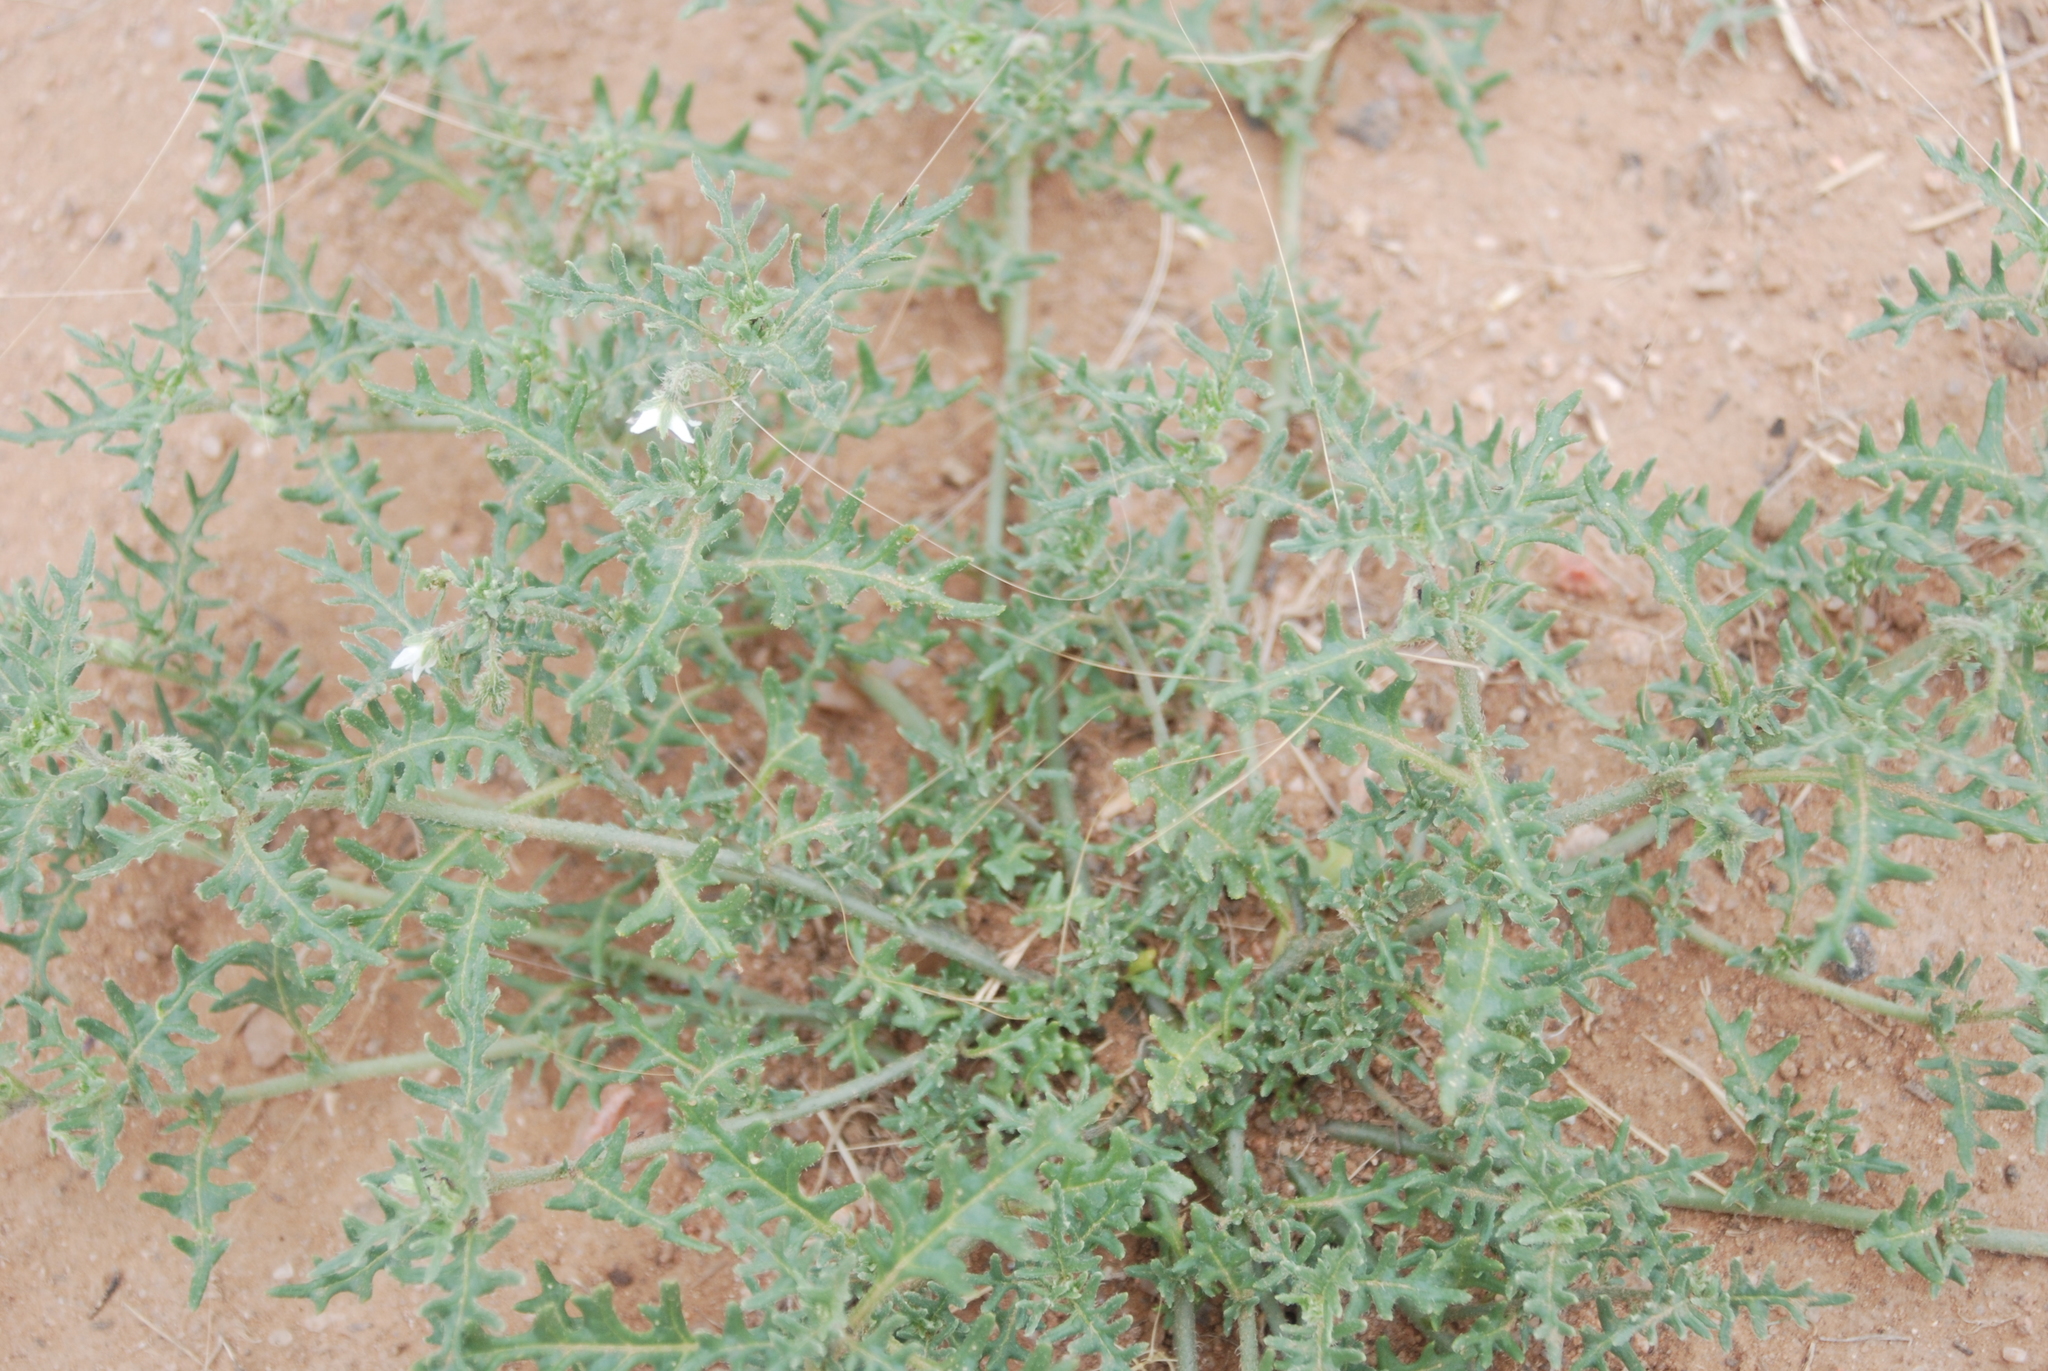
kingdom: Plantae
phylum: Tracheophyta
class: Magnoliopsida
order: Solanales
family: Solanaceae
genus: Solanum
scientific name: Solanum triflorum
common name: Small nightshade
